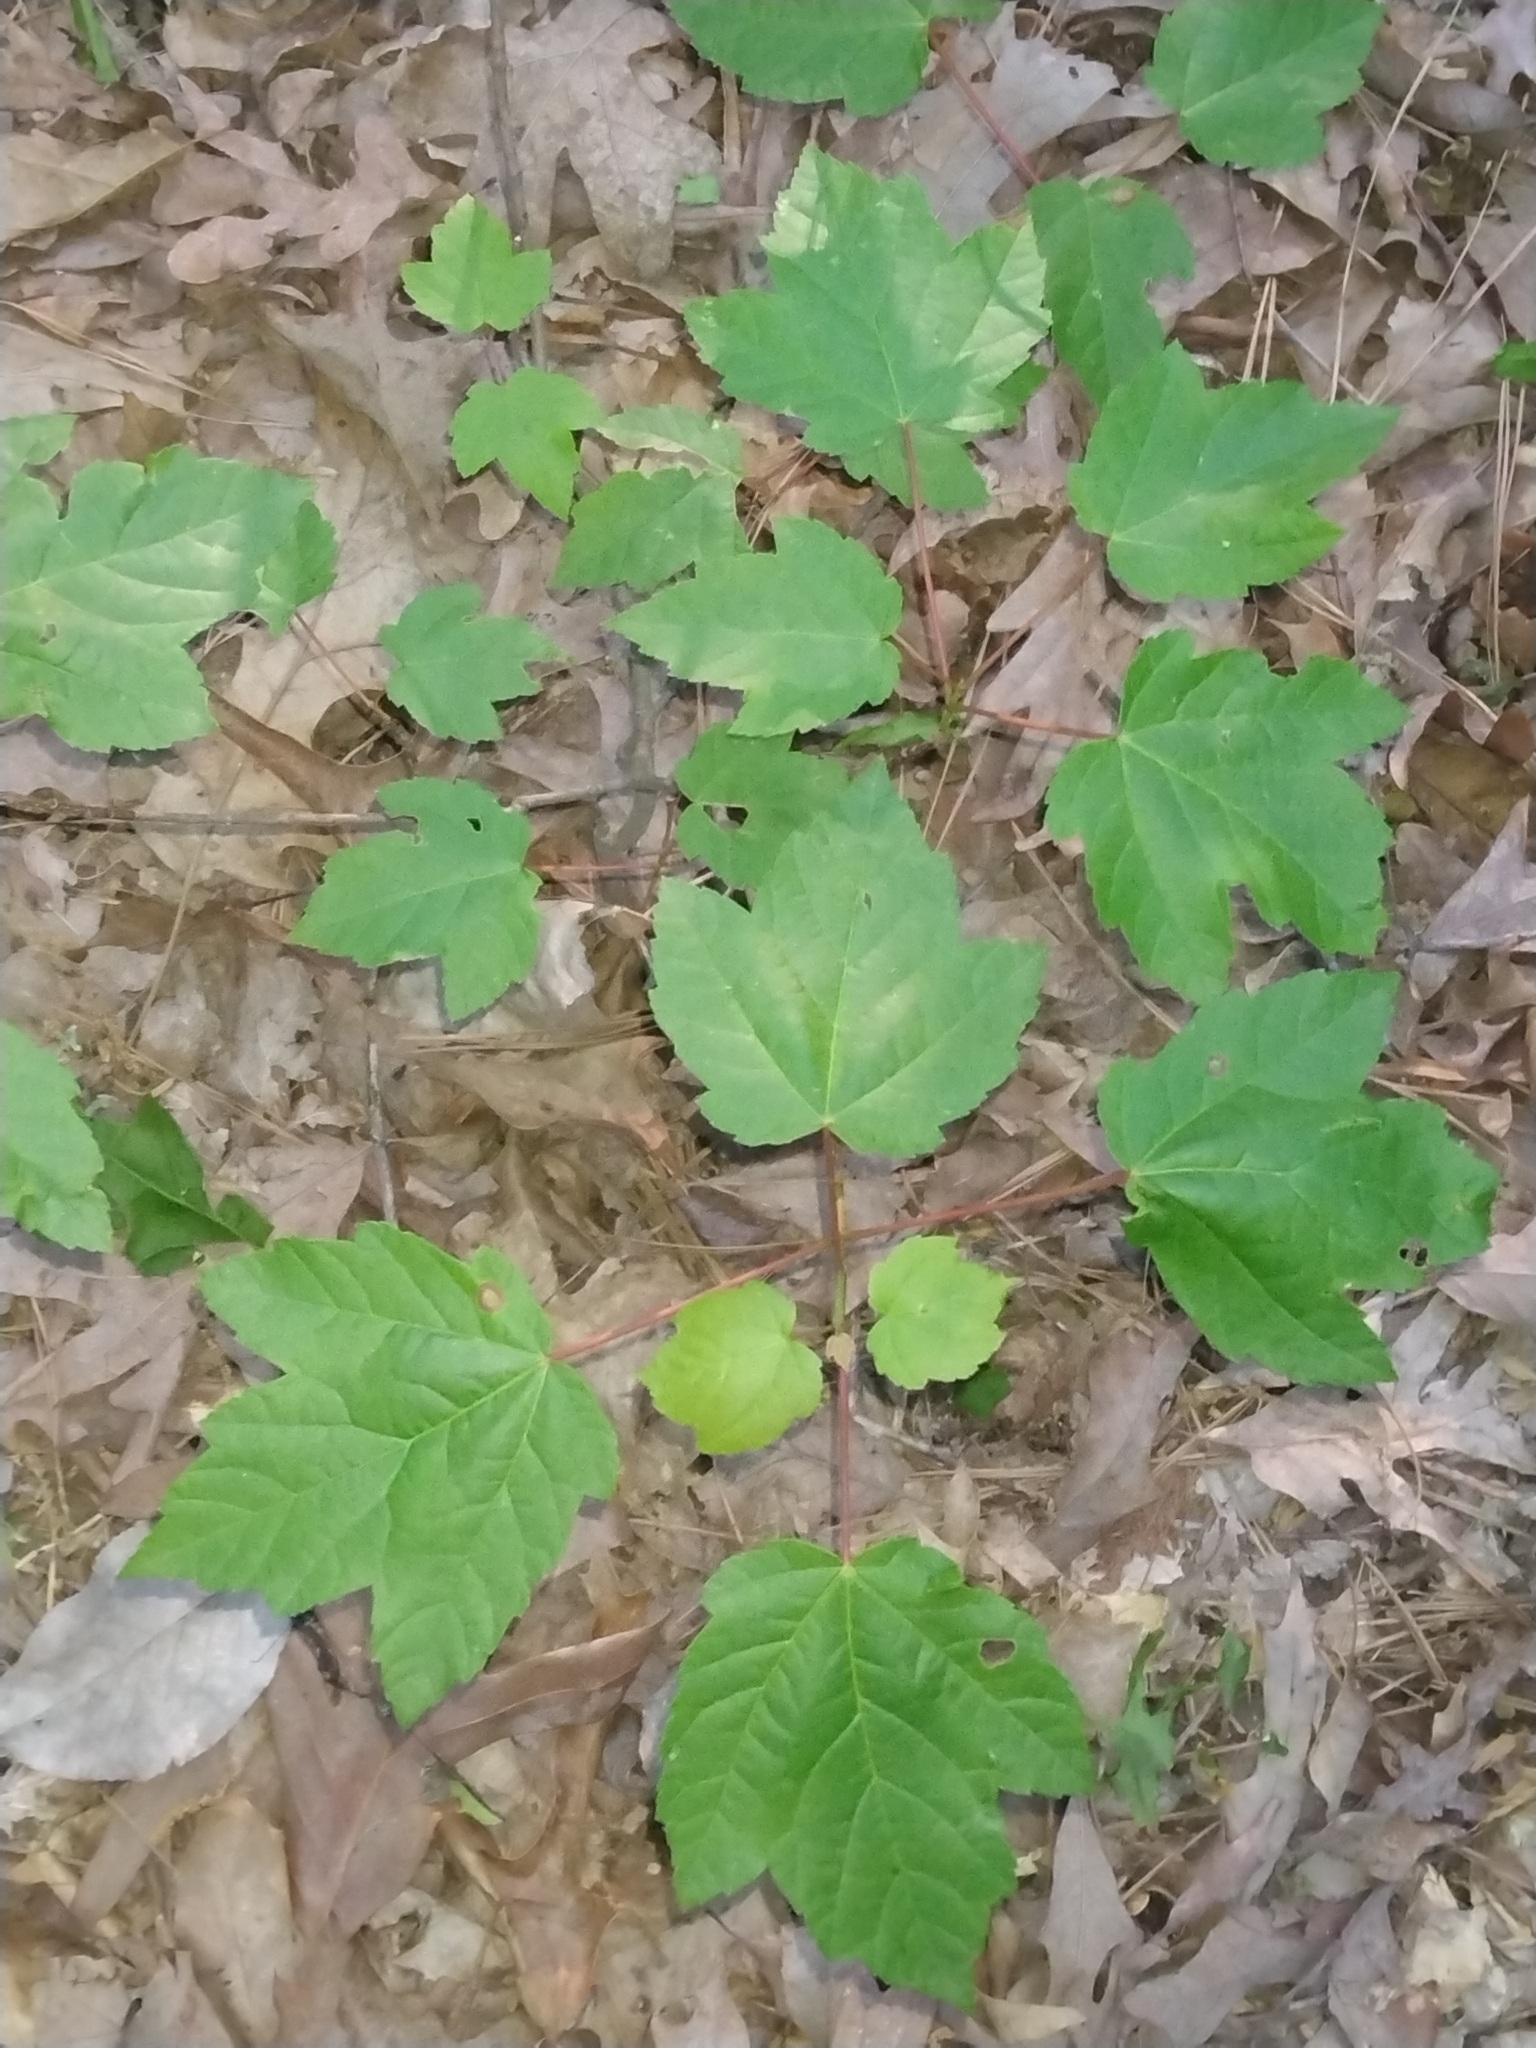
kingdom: Plantae
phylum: Tracheophyta
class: Magnoliopsida
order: Sapindales
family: Sapindaceae
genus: Acer
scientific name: Acer rubrum
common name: Red maple
